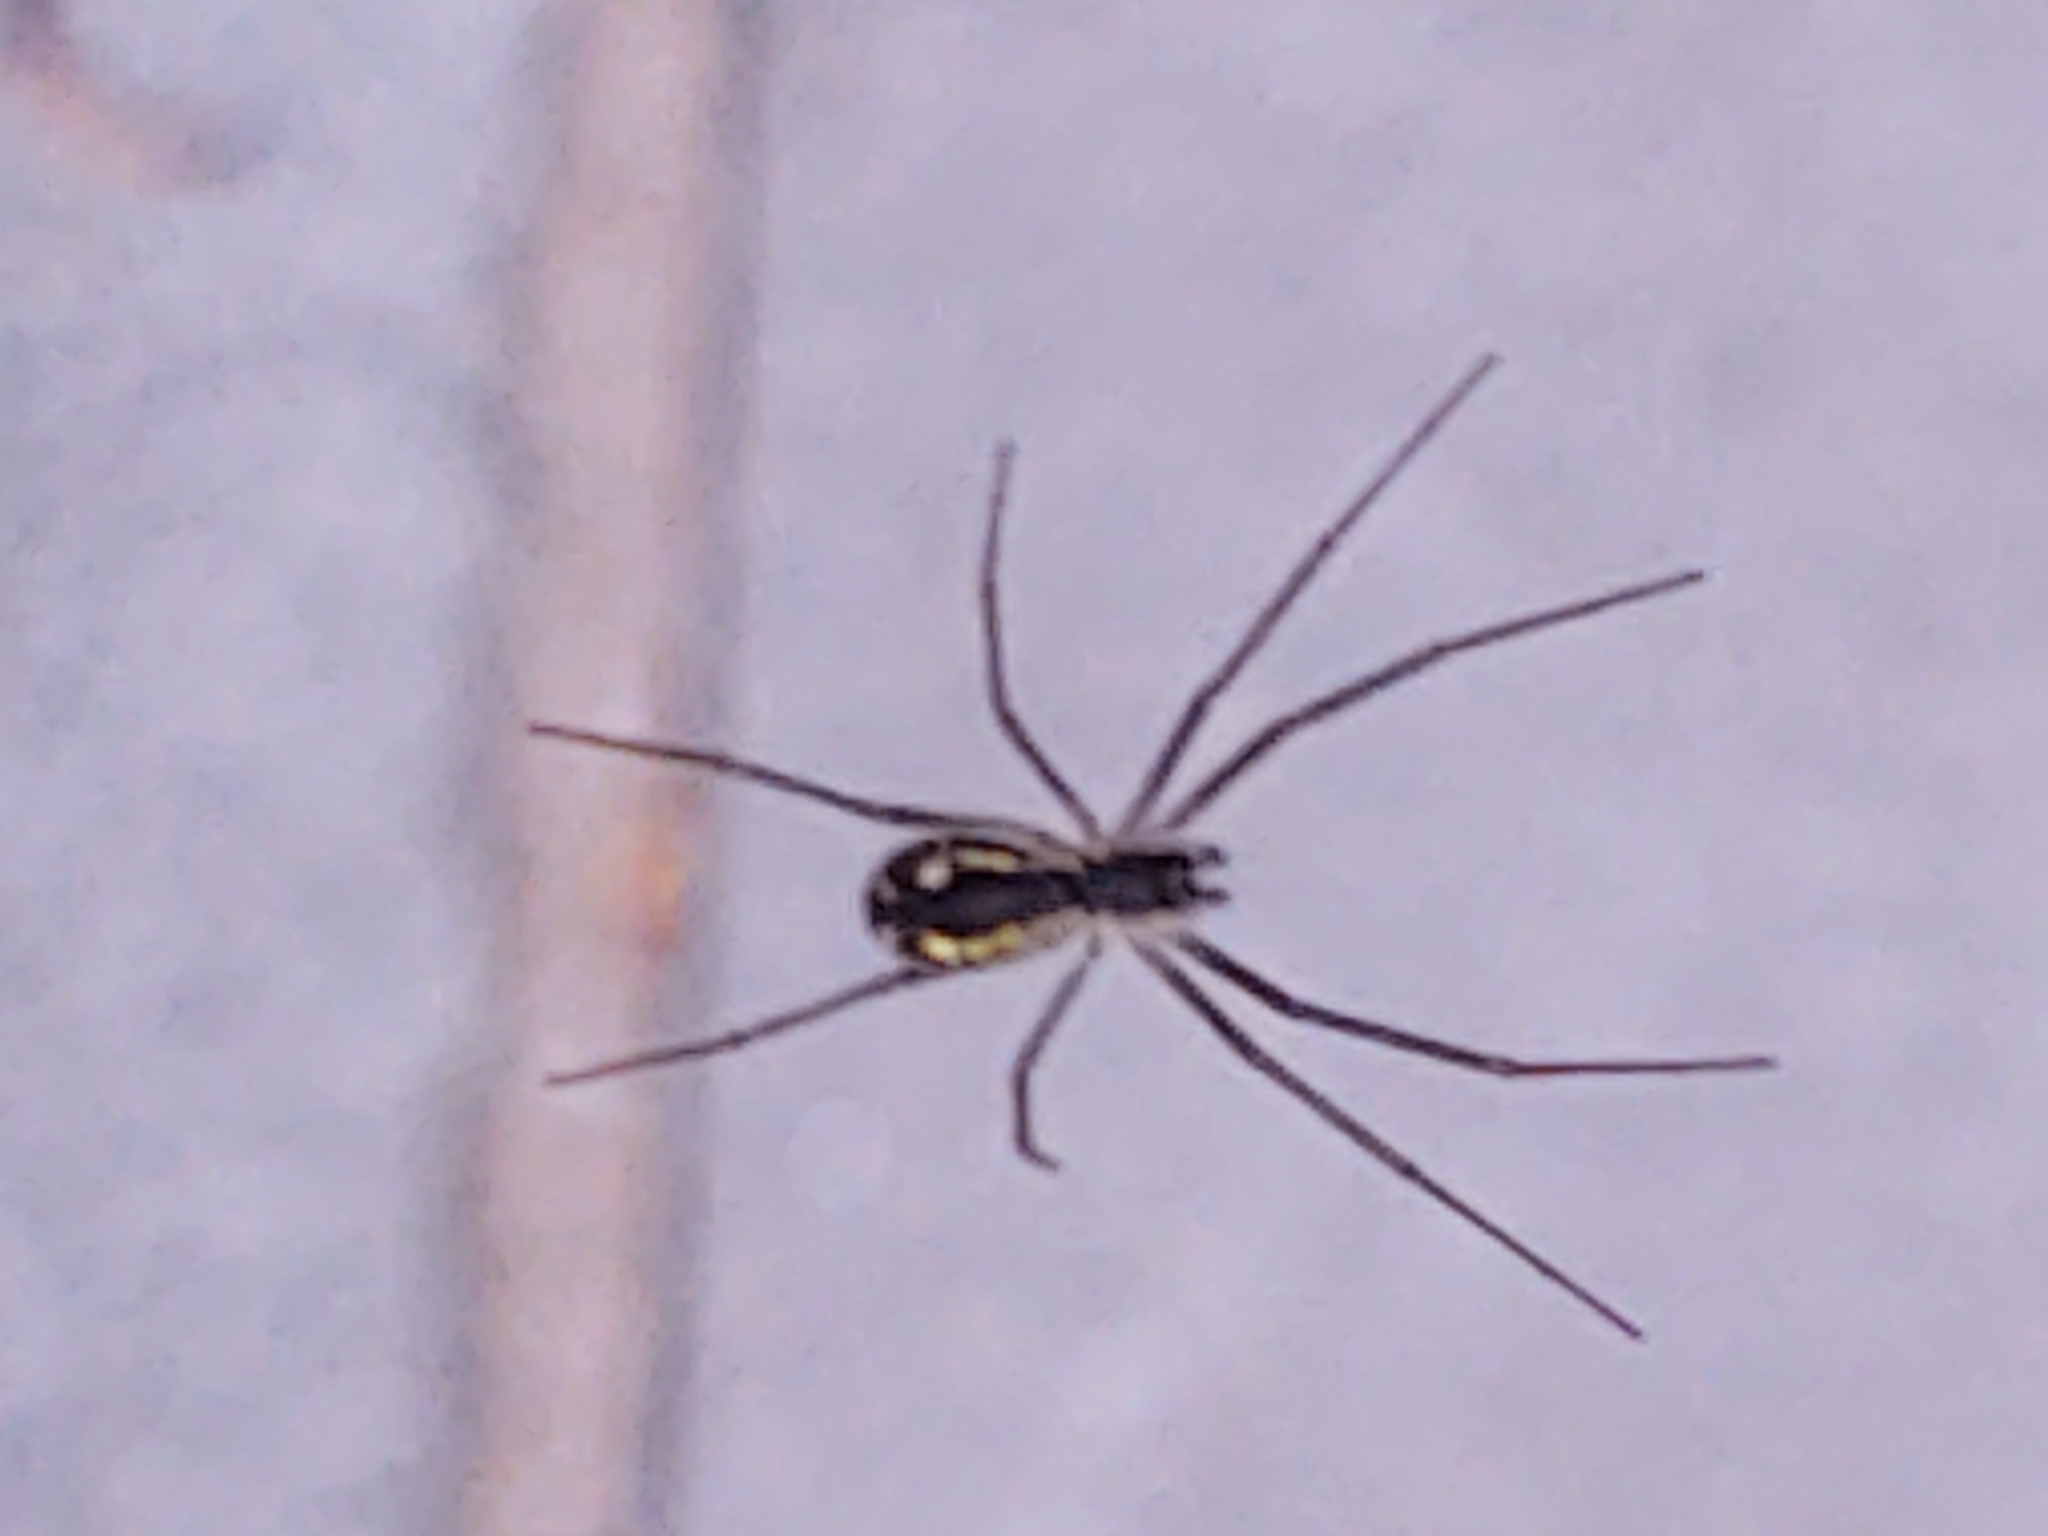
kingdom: Animalia
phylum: Arthropoda
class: Arachnida
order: Araneae
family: Linyphiidae
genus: Neriene
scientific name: Neriene radiata
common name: Filmy dome spider
